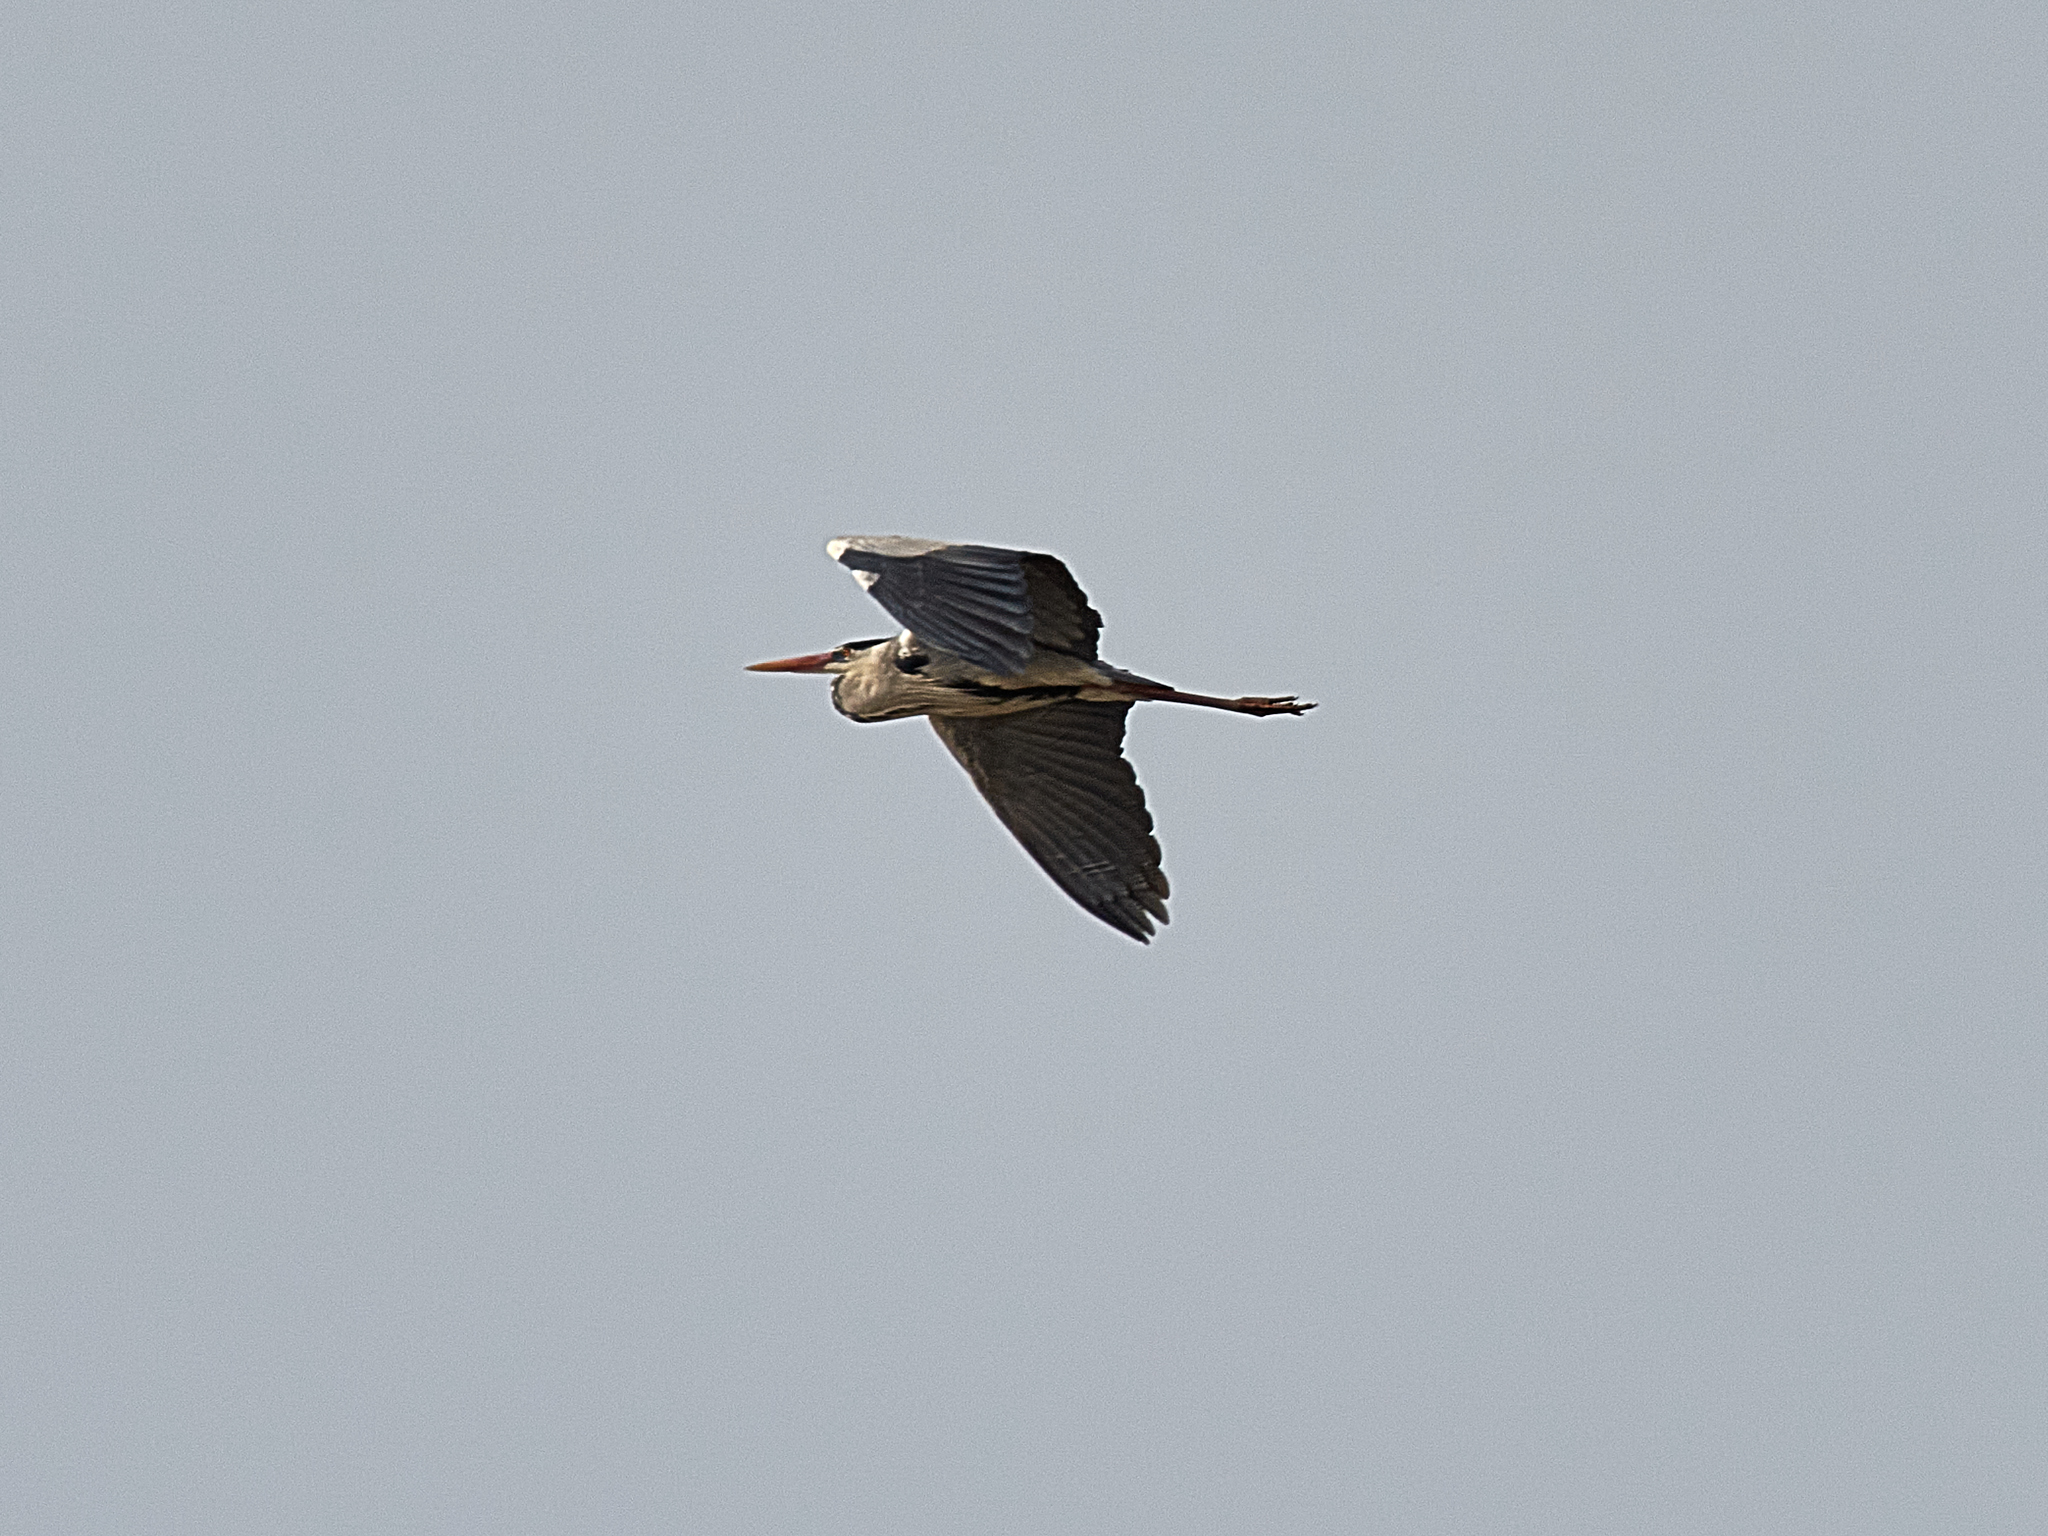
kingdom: Animalia
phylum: Chordata
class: Aves
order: Pelecaniformes
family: Ardeidae
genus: Ardea
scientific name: Ardea cinerea
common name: Grey heron
